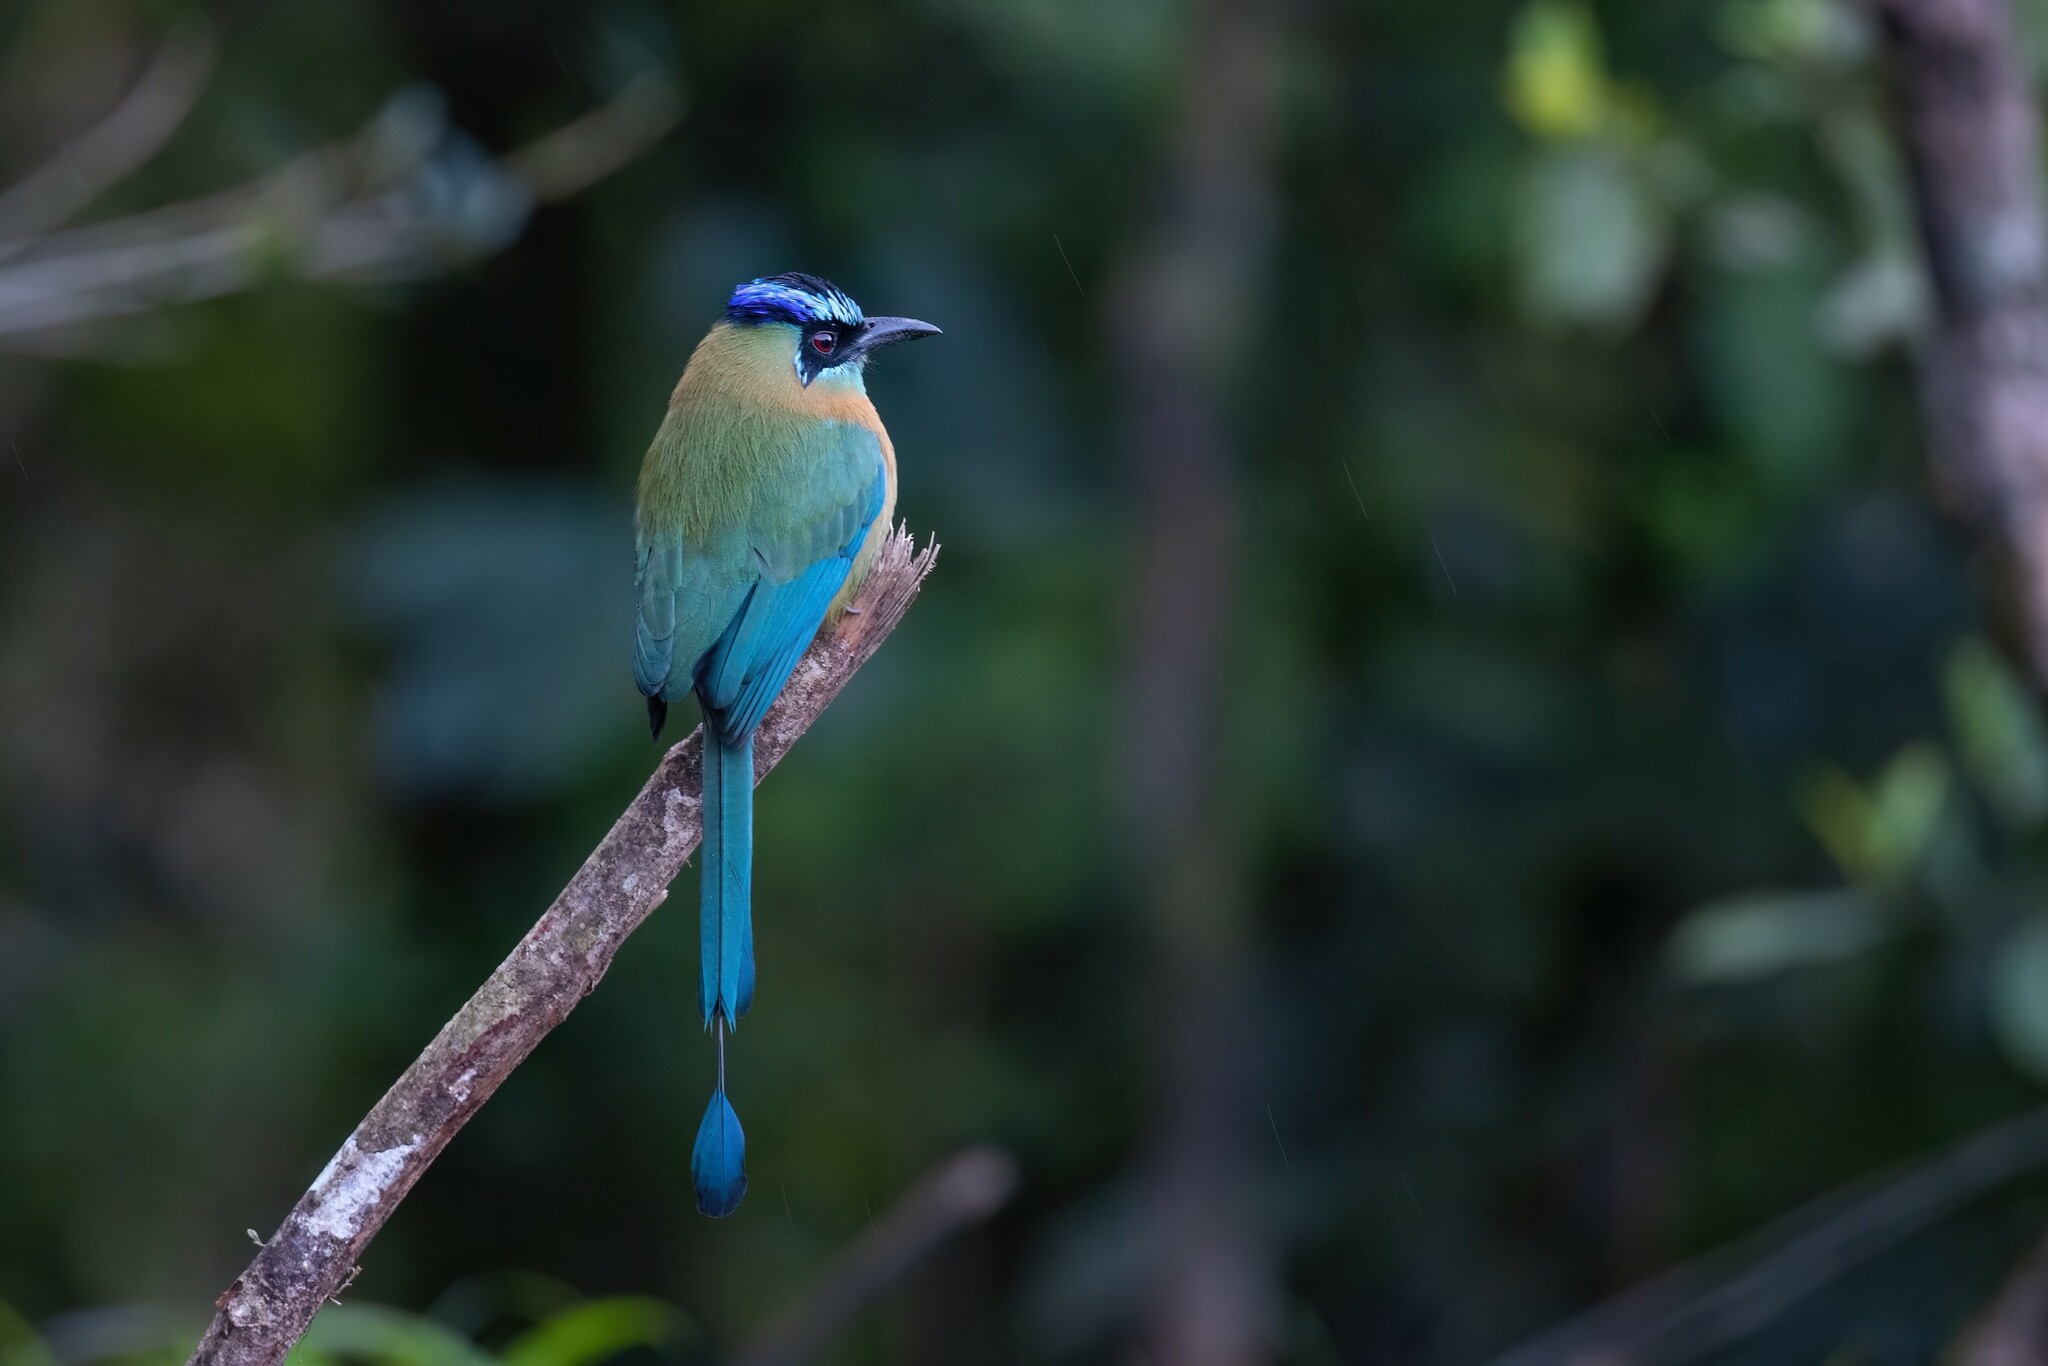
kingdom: Animalia
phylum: Chordata
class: Aves
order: Coraciiformes
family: Momotidae
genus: Momotus
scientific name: Momotus lessonii
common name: Lesson's motmot
